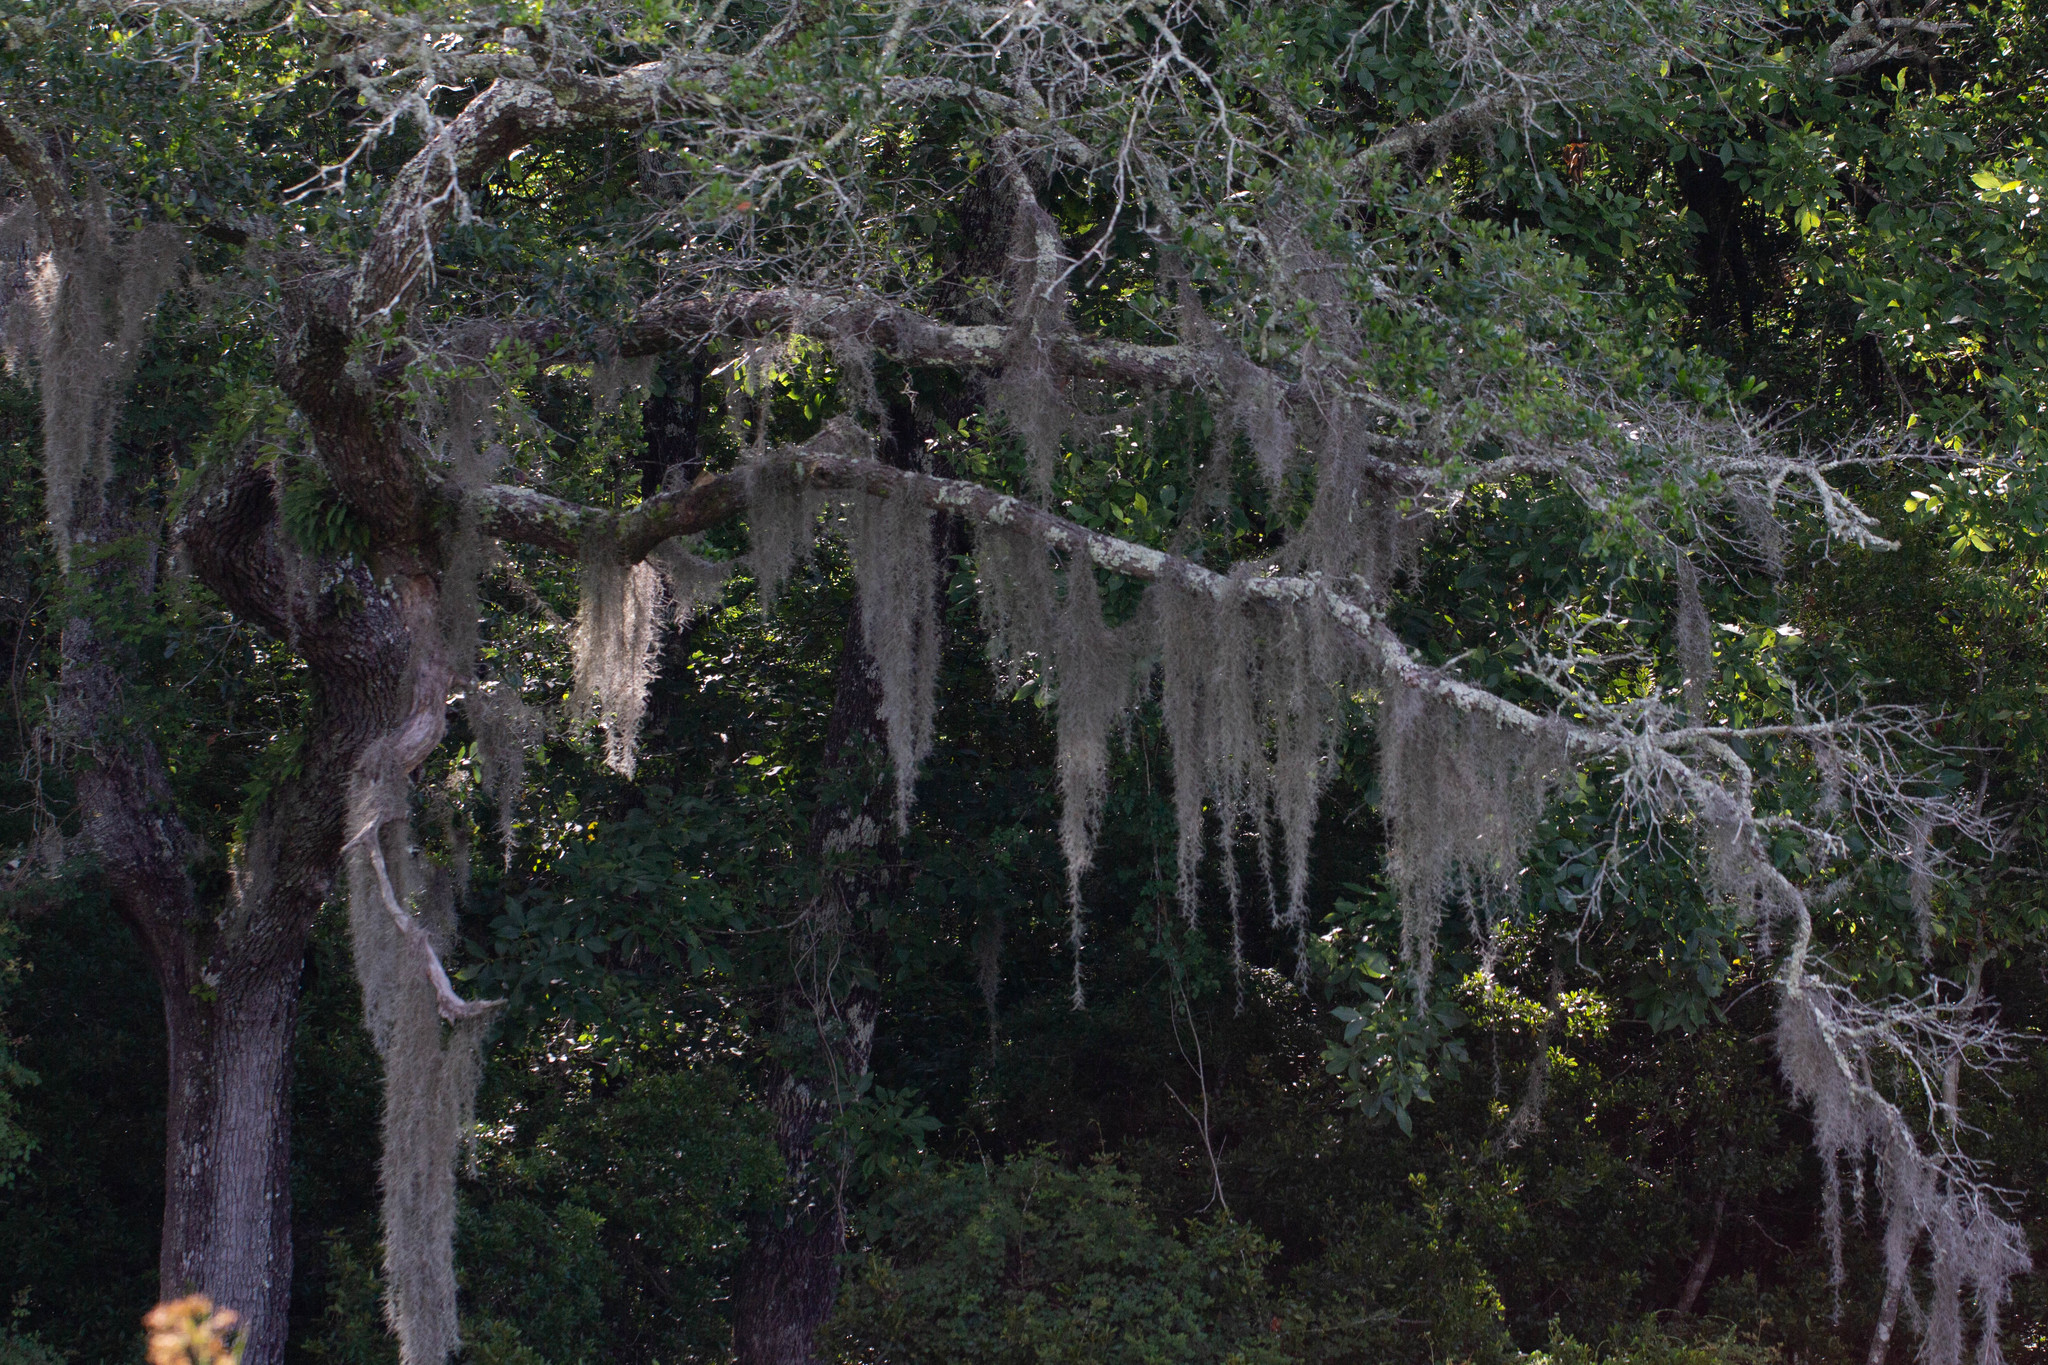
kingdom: Plantae
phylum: Tracheophyta
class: Liliopsida
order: Poales
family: Bromeliaceae
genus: Tillandsia
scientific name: Tillandsia usneoides
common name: Spanish moss
